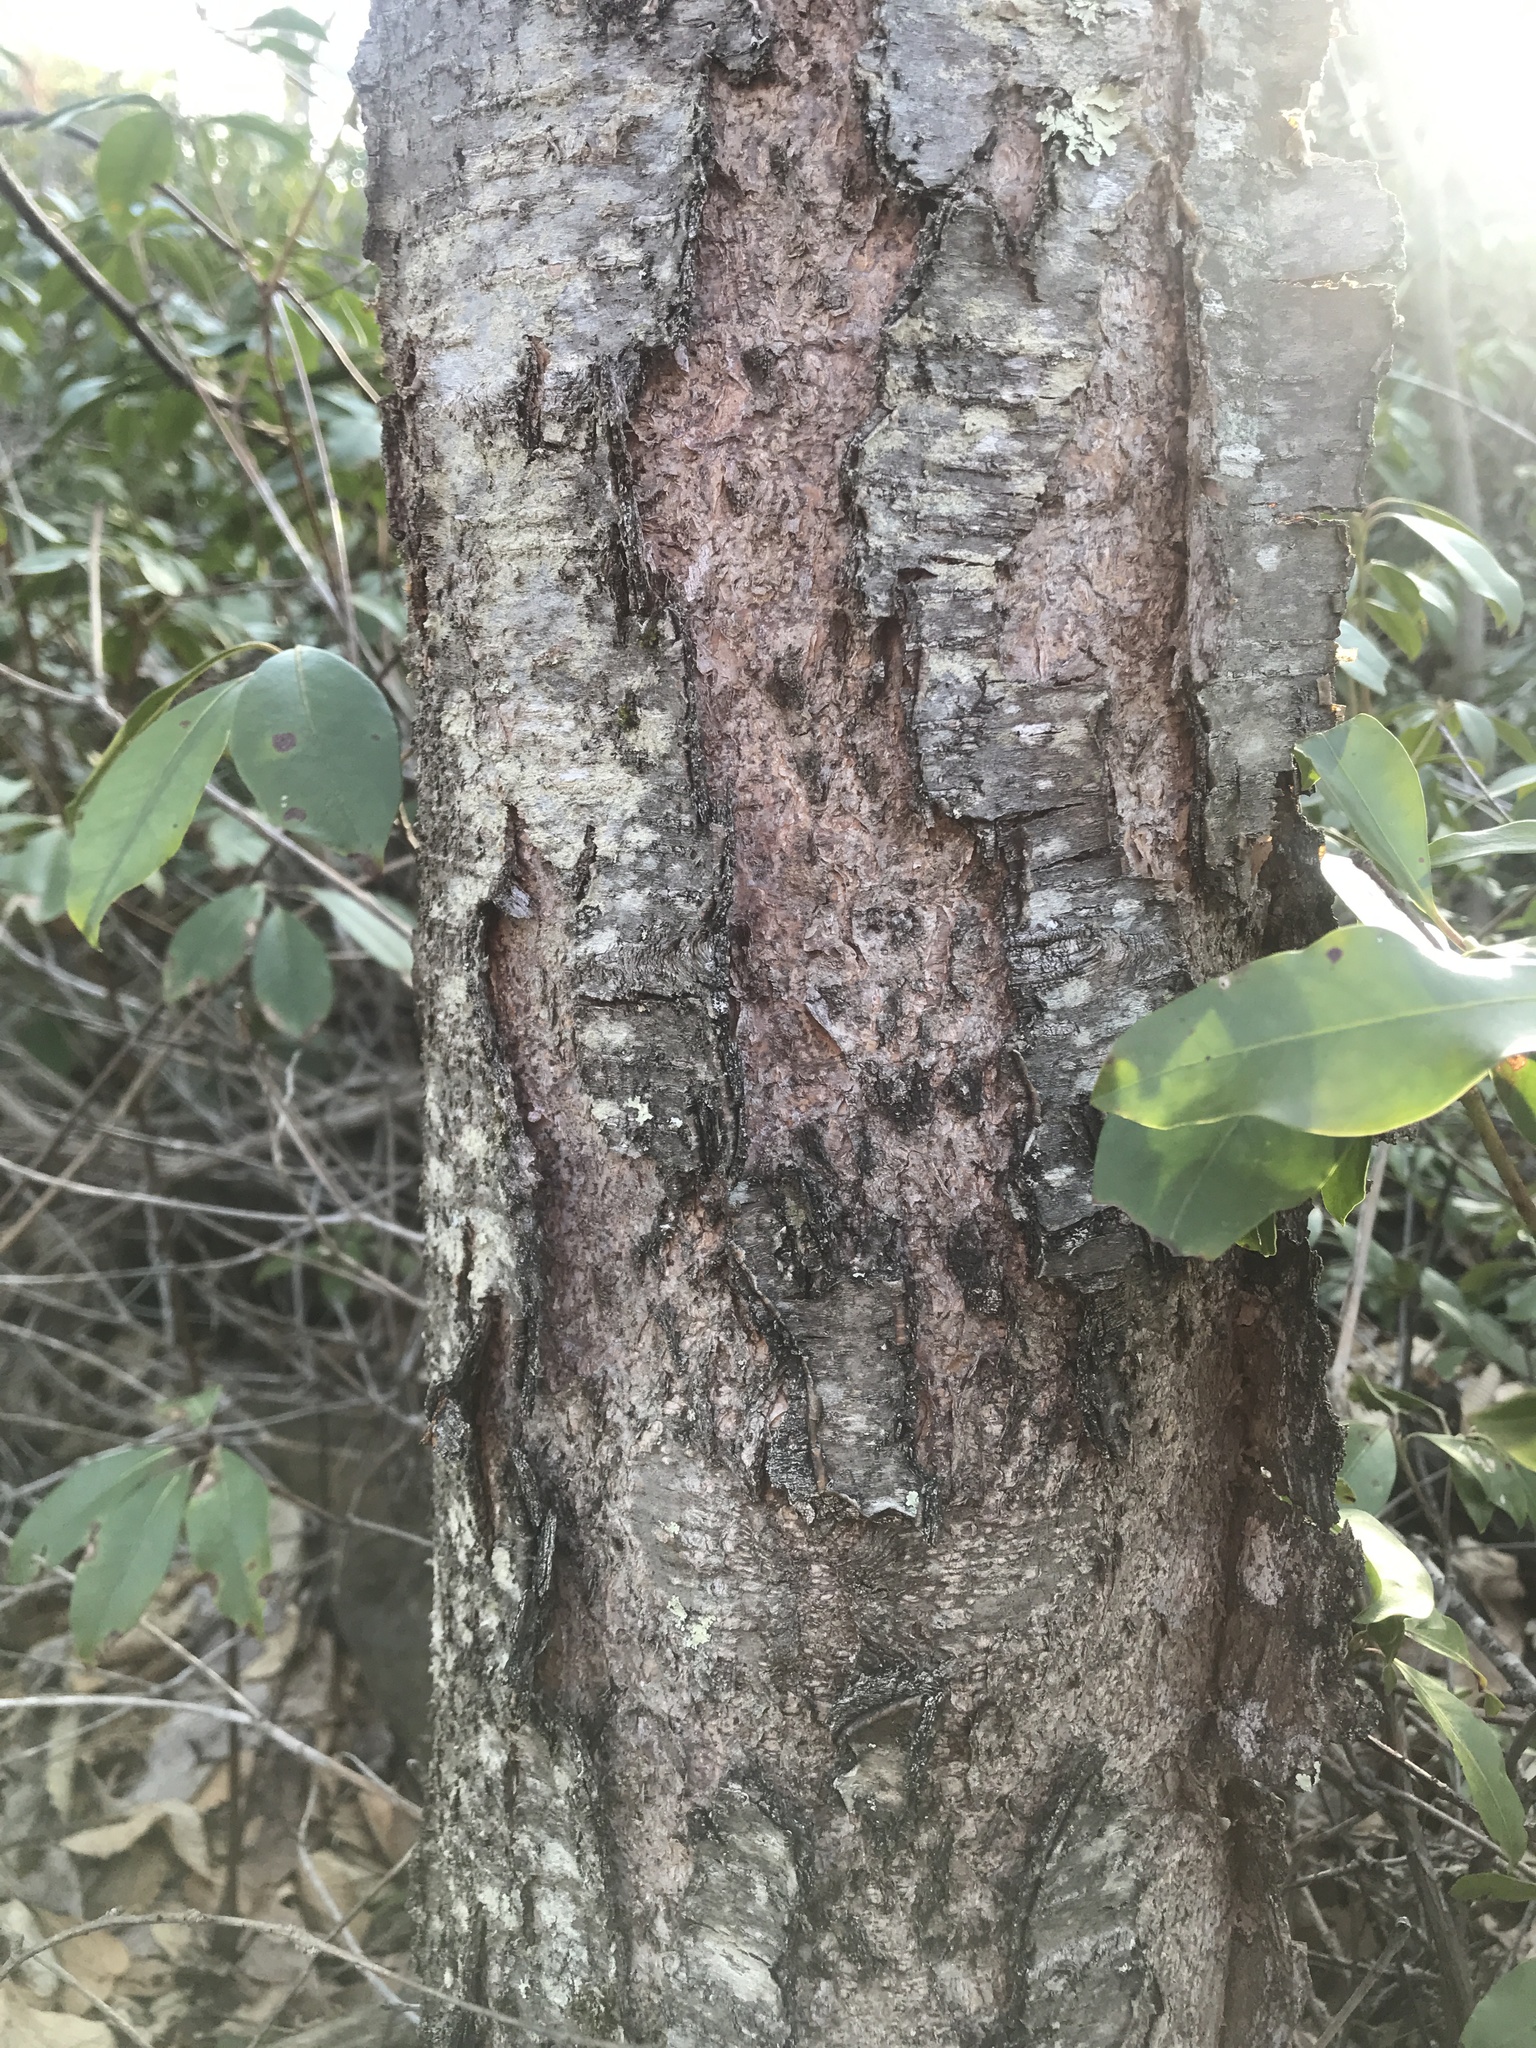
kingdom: Plantae
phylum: Tracheophyta
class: Magnoliopsida
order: Fagales
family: Betulaceae
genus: Betula
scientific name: Betula lenta
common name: Black birch
